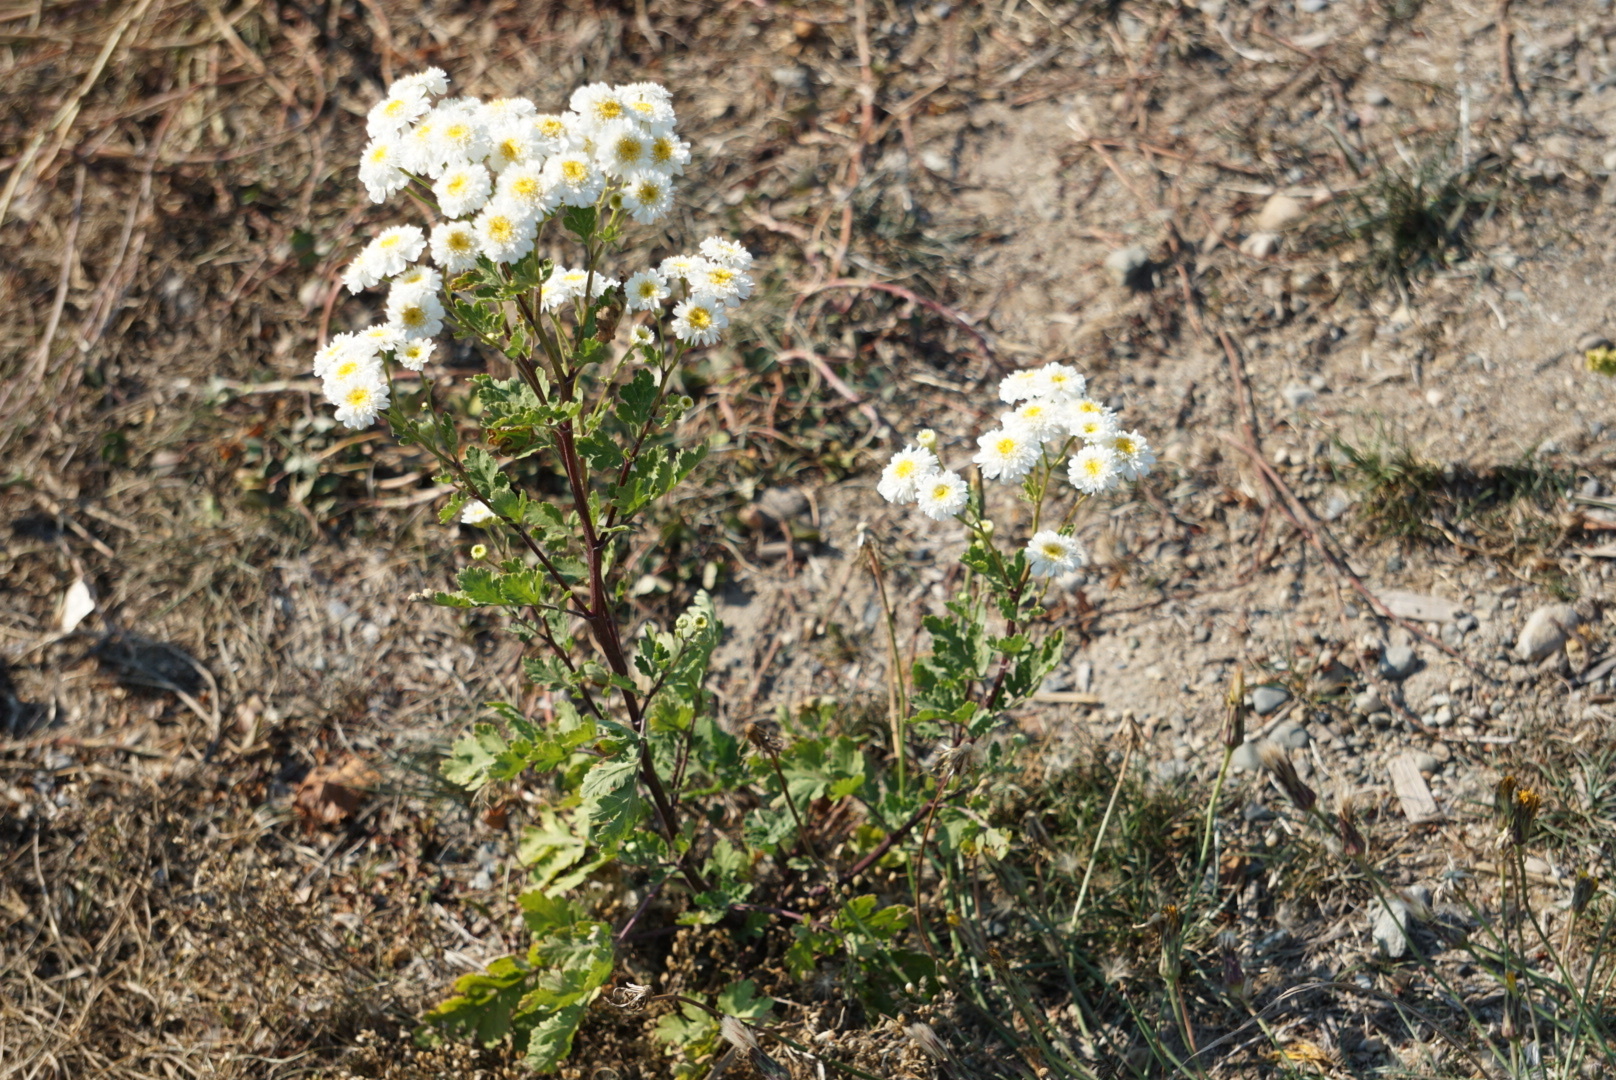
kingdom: Plantae
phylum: Tracheophyta
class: Magnoliopsida
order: Asterales
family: Asteraceae
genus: Tanacetum
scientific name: Tanacetum parthenium
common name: Feverfew
